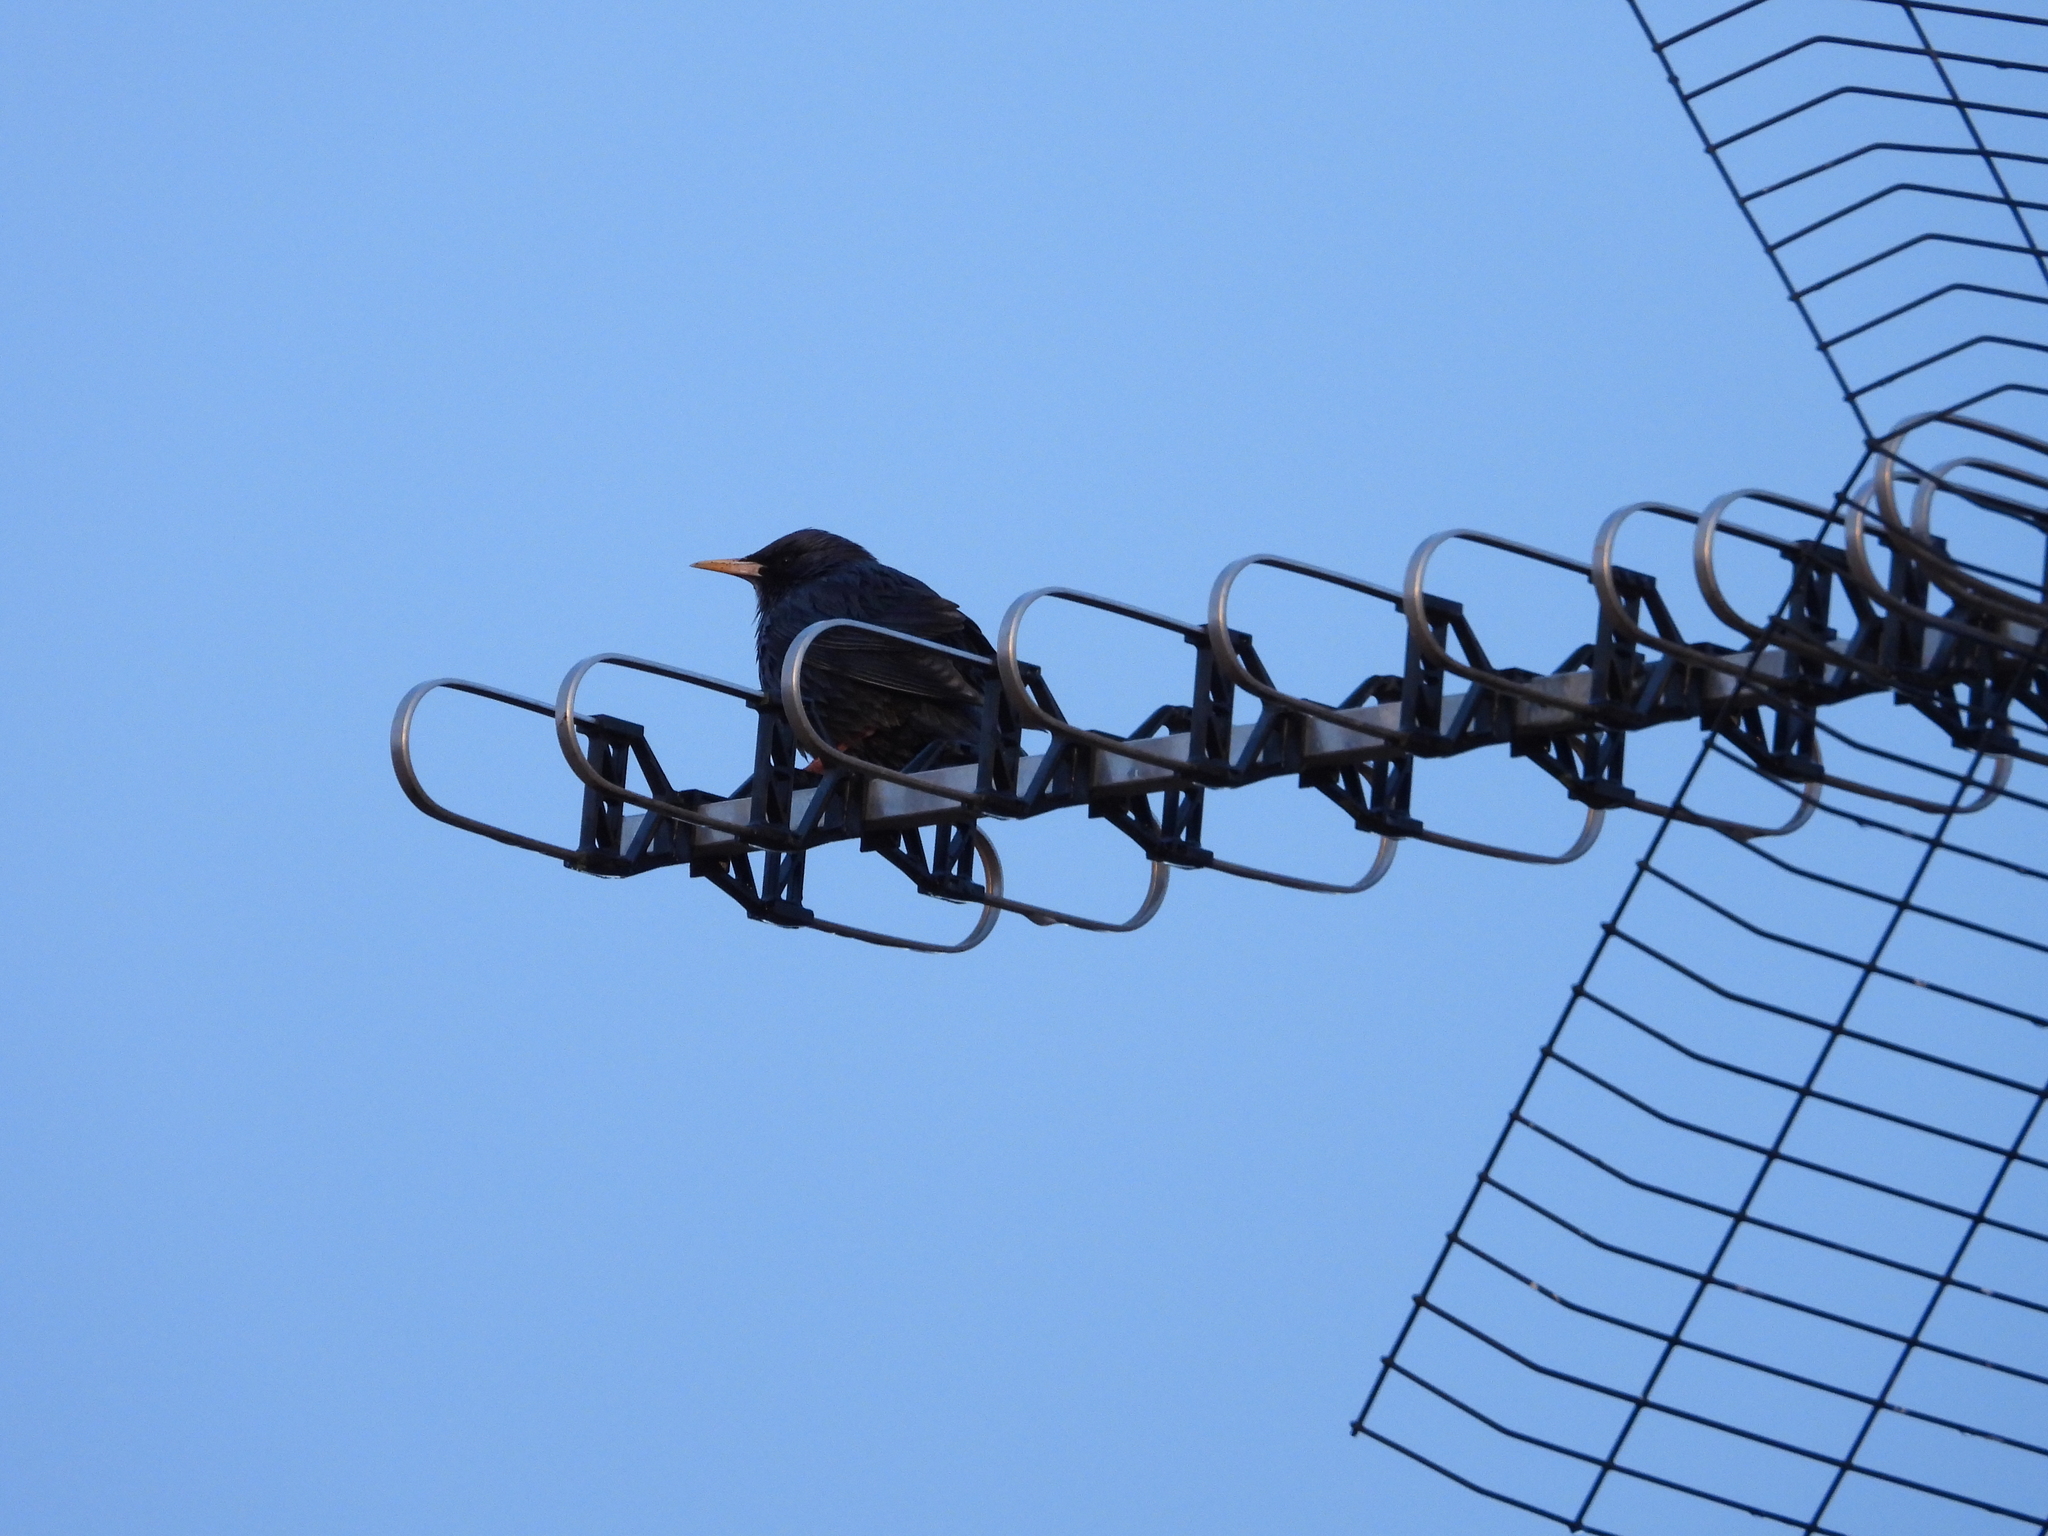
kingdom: Animalia
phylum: Chordata
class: Aves
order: Passeriformes
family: Sturnidae
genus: Sturnus
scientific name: Sturnus unicolor
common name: Spotless starling
